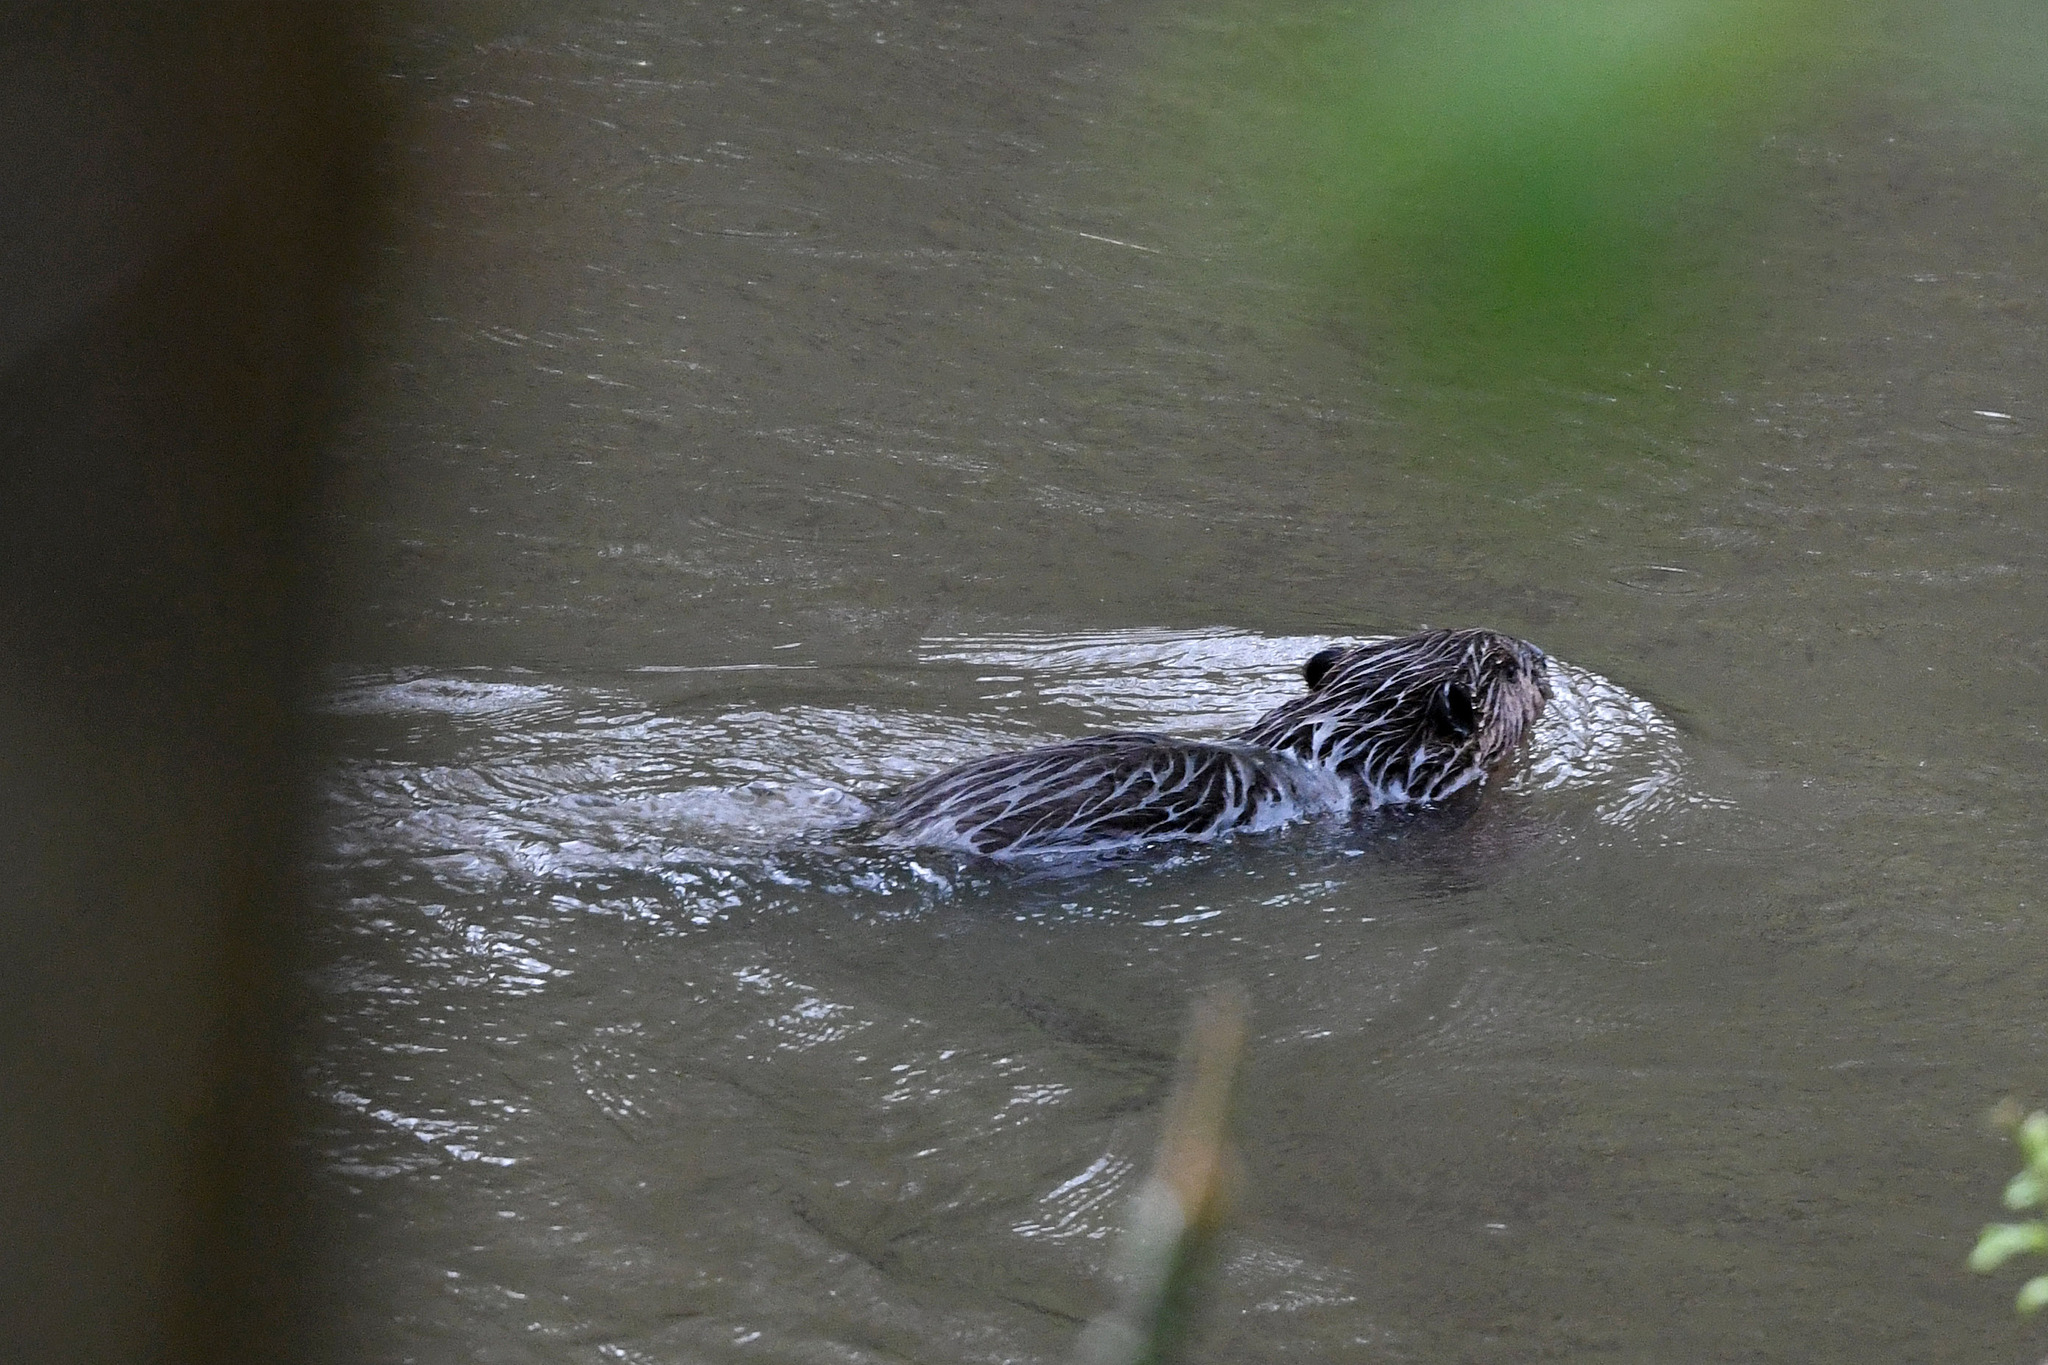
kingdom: Animalia
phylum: Chordata
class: Mammalia
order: Rodentia
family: Castoridae
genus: Castor
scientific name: Castor canadensis
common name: American beaver
